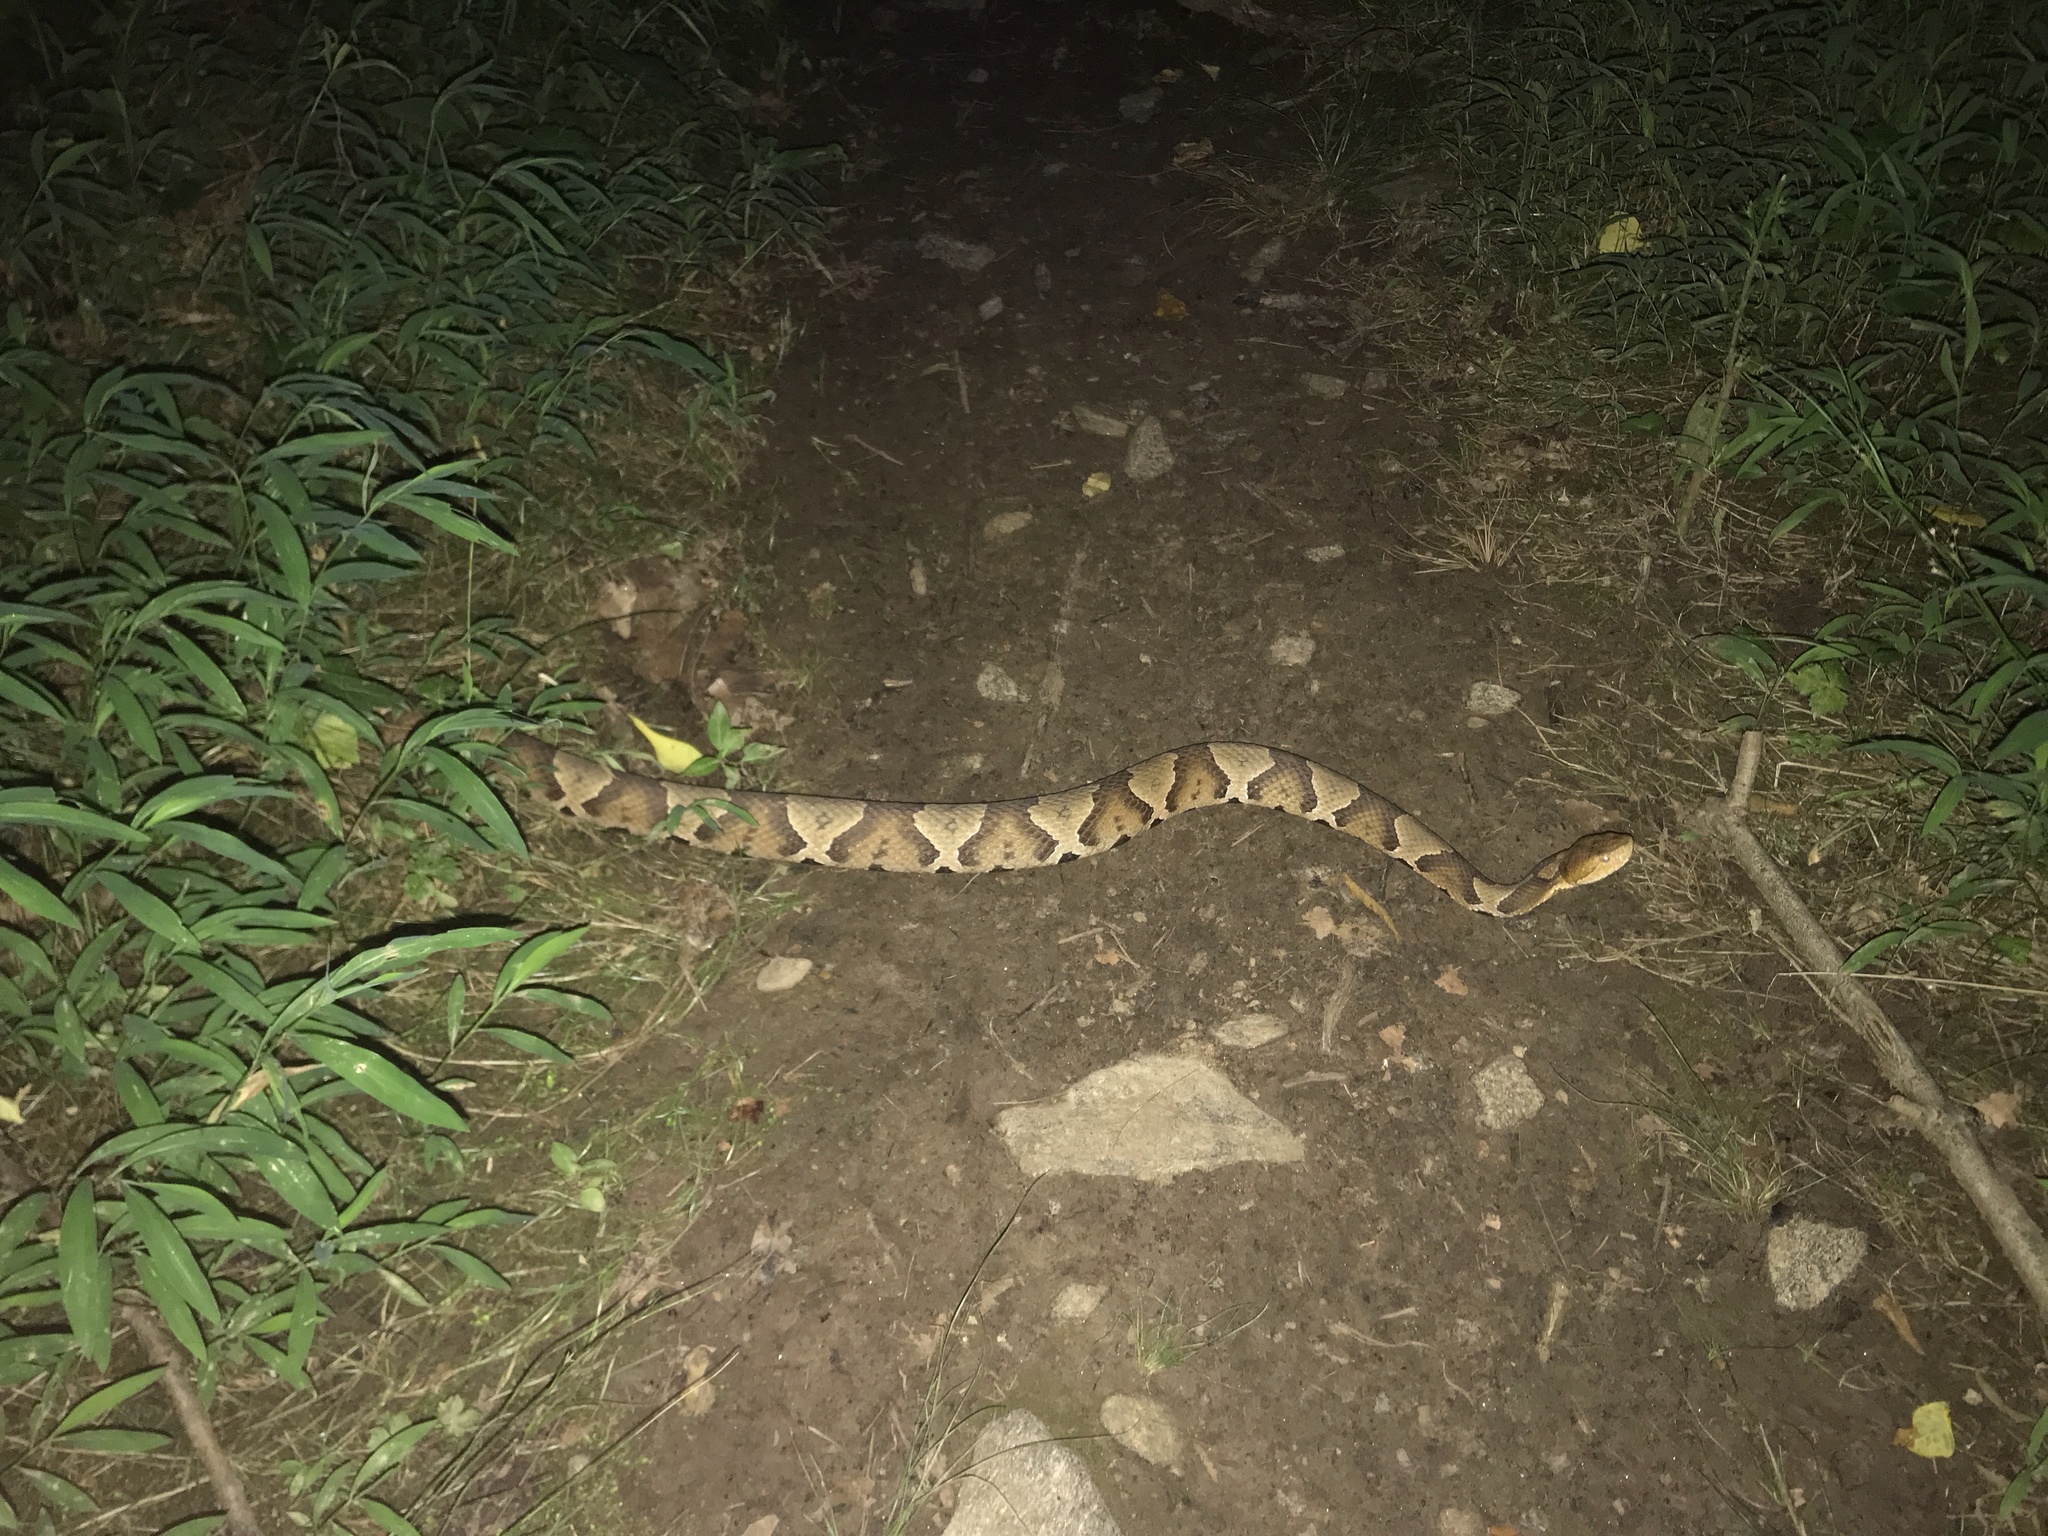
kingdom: Animalia
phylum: Chordata
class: Squamata
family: Viperidae
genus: Agkistrodon
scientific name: Agkistrodon contortrix
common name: Northern copperhead
